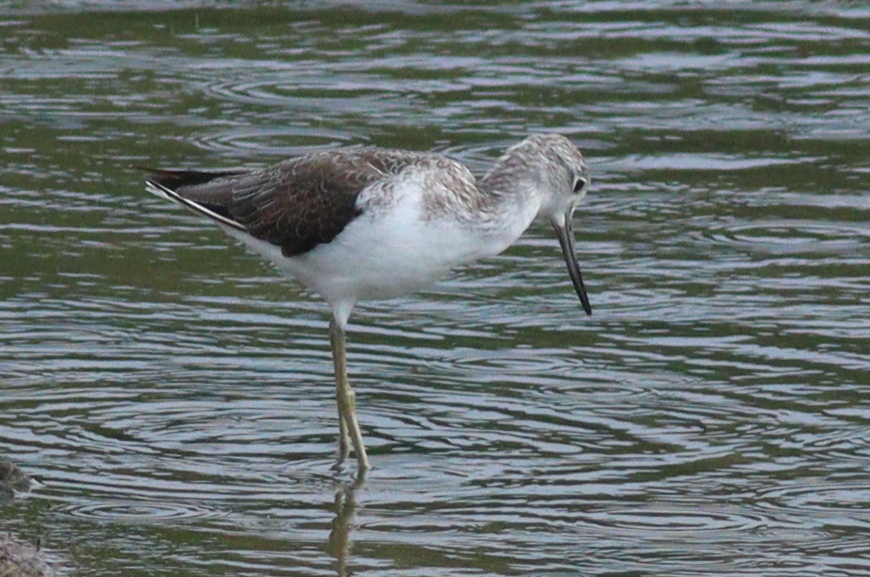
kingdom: Animalia
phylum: Chordata
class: Aves
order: Charadriiformes
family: Scolopacidae
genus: Tringa
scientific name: Tringa nebularia
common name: Common greenshank
